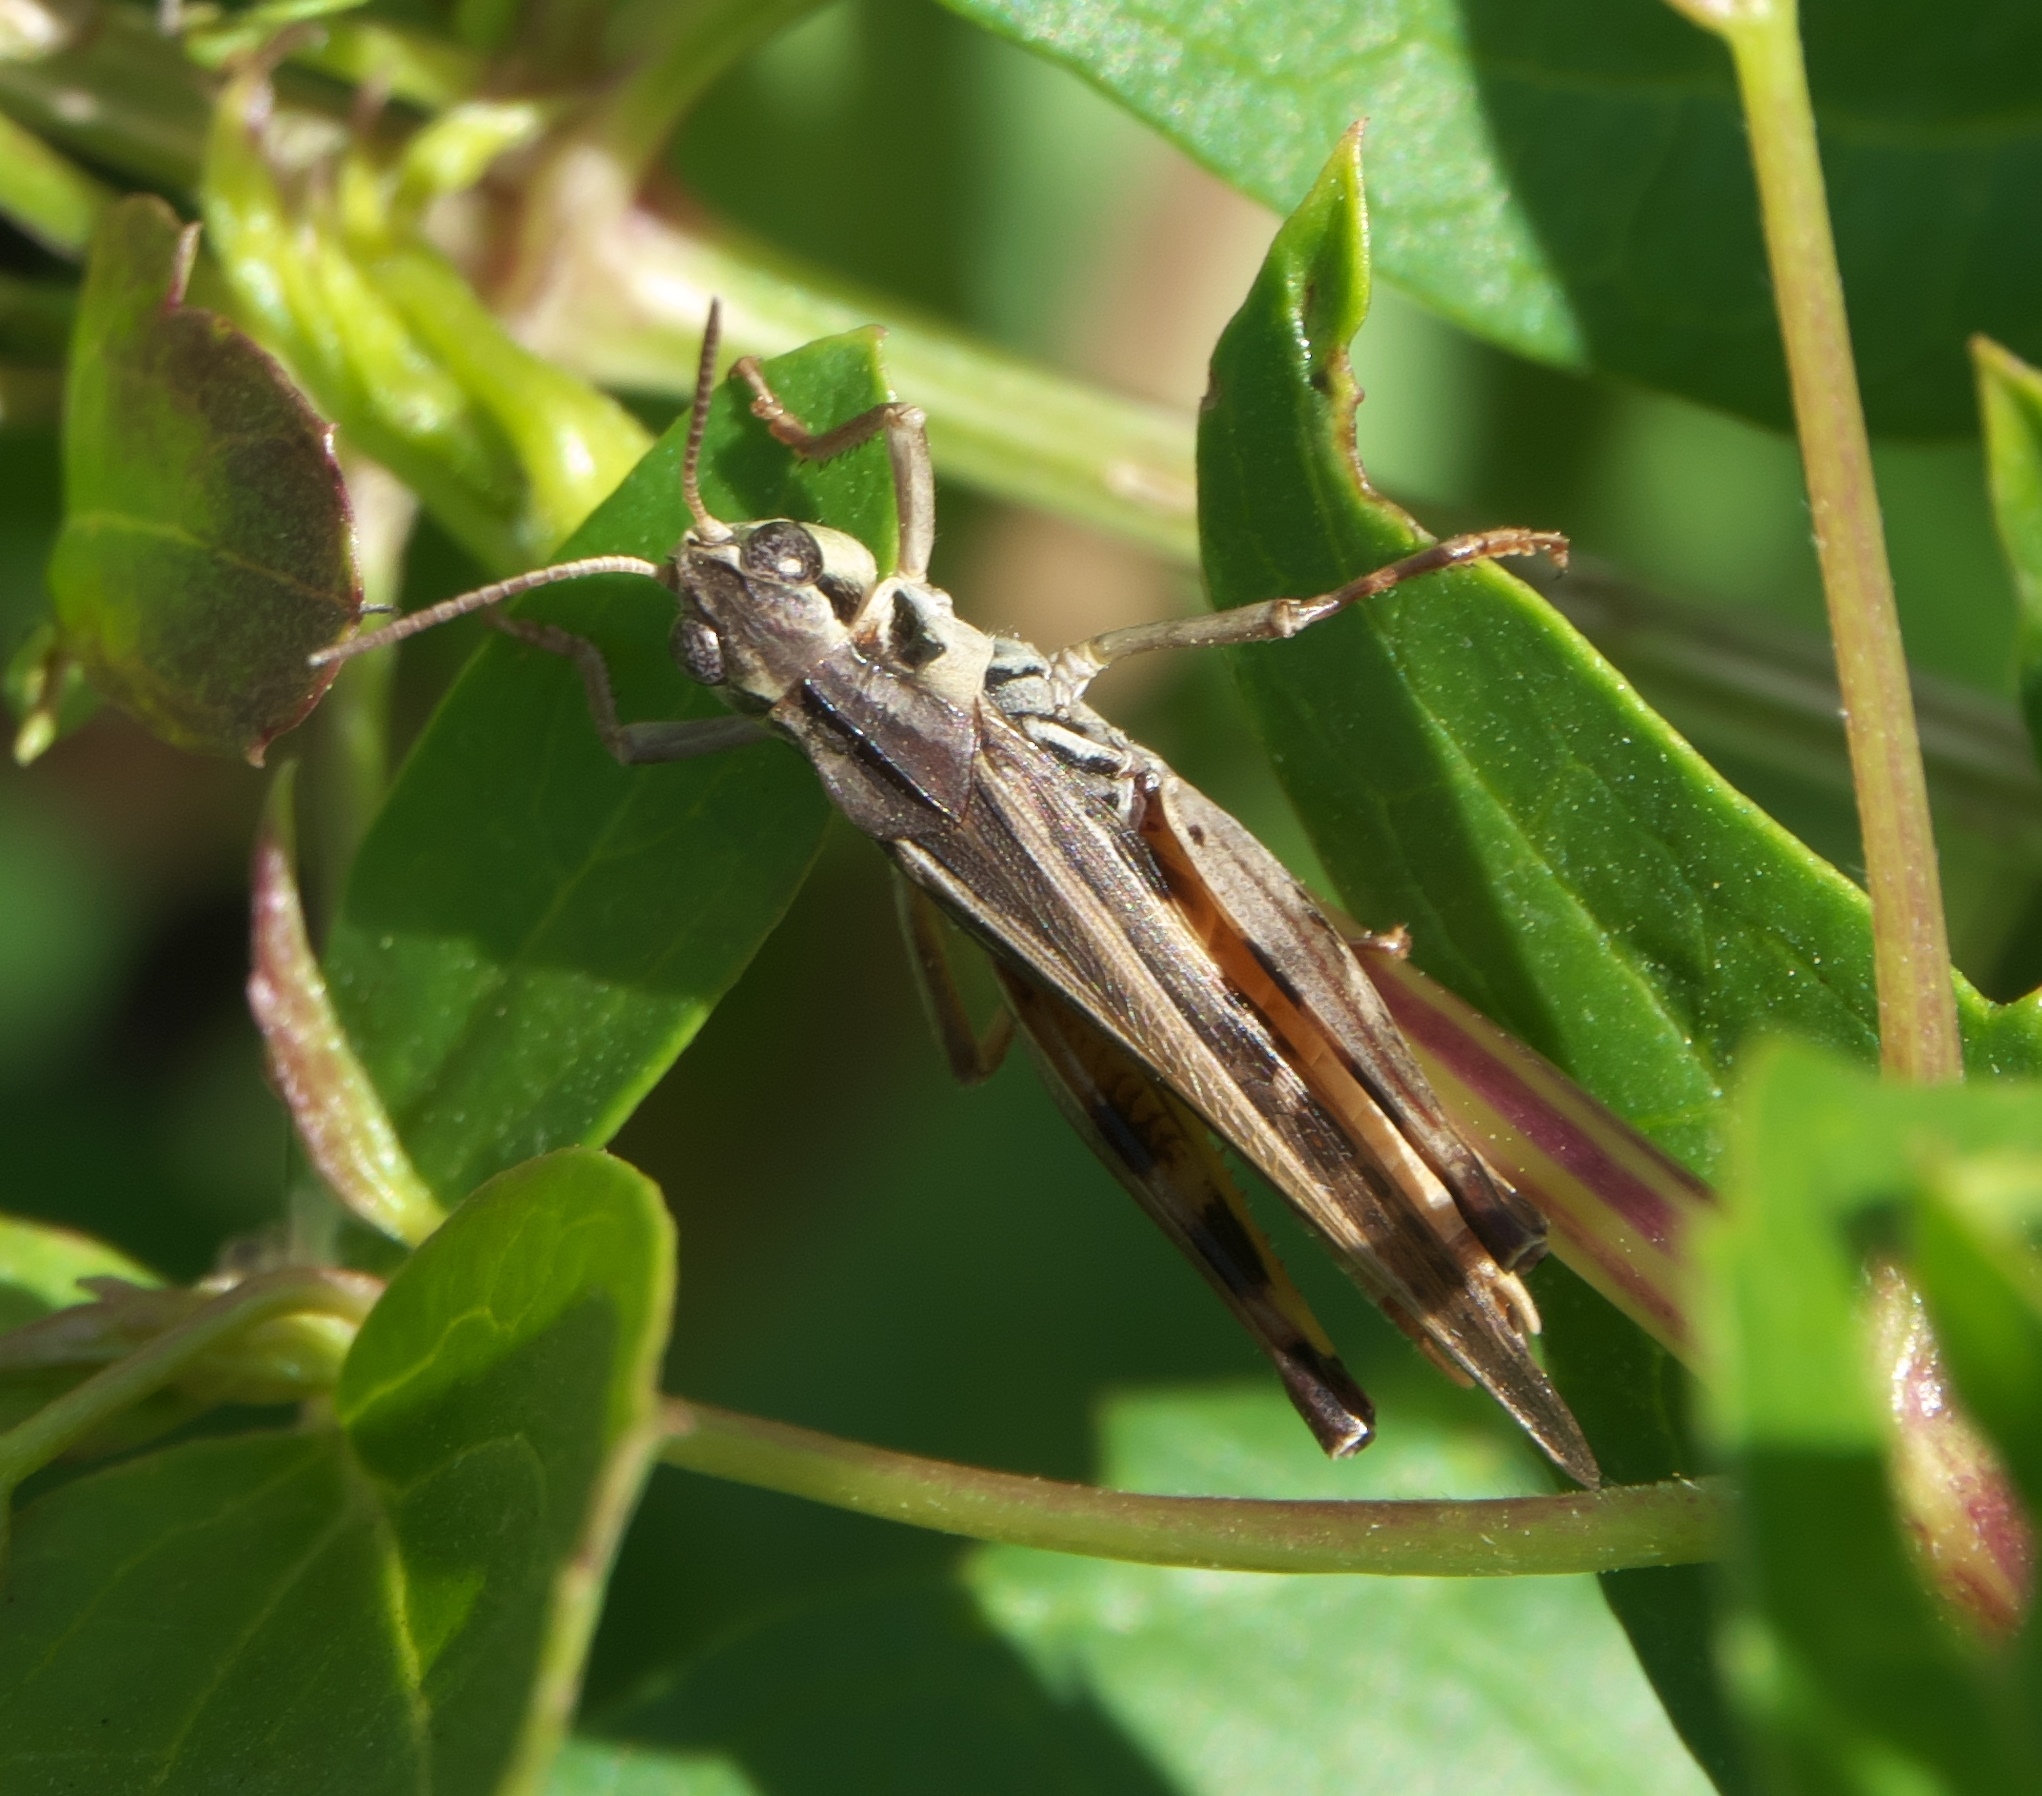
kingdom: Animalia
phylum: Arthropoda
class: Insecta
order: Orthoptera
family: Acrididae
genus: Camnula
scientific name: Camnula pellucida
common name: Clear-winged grasshopper
